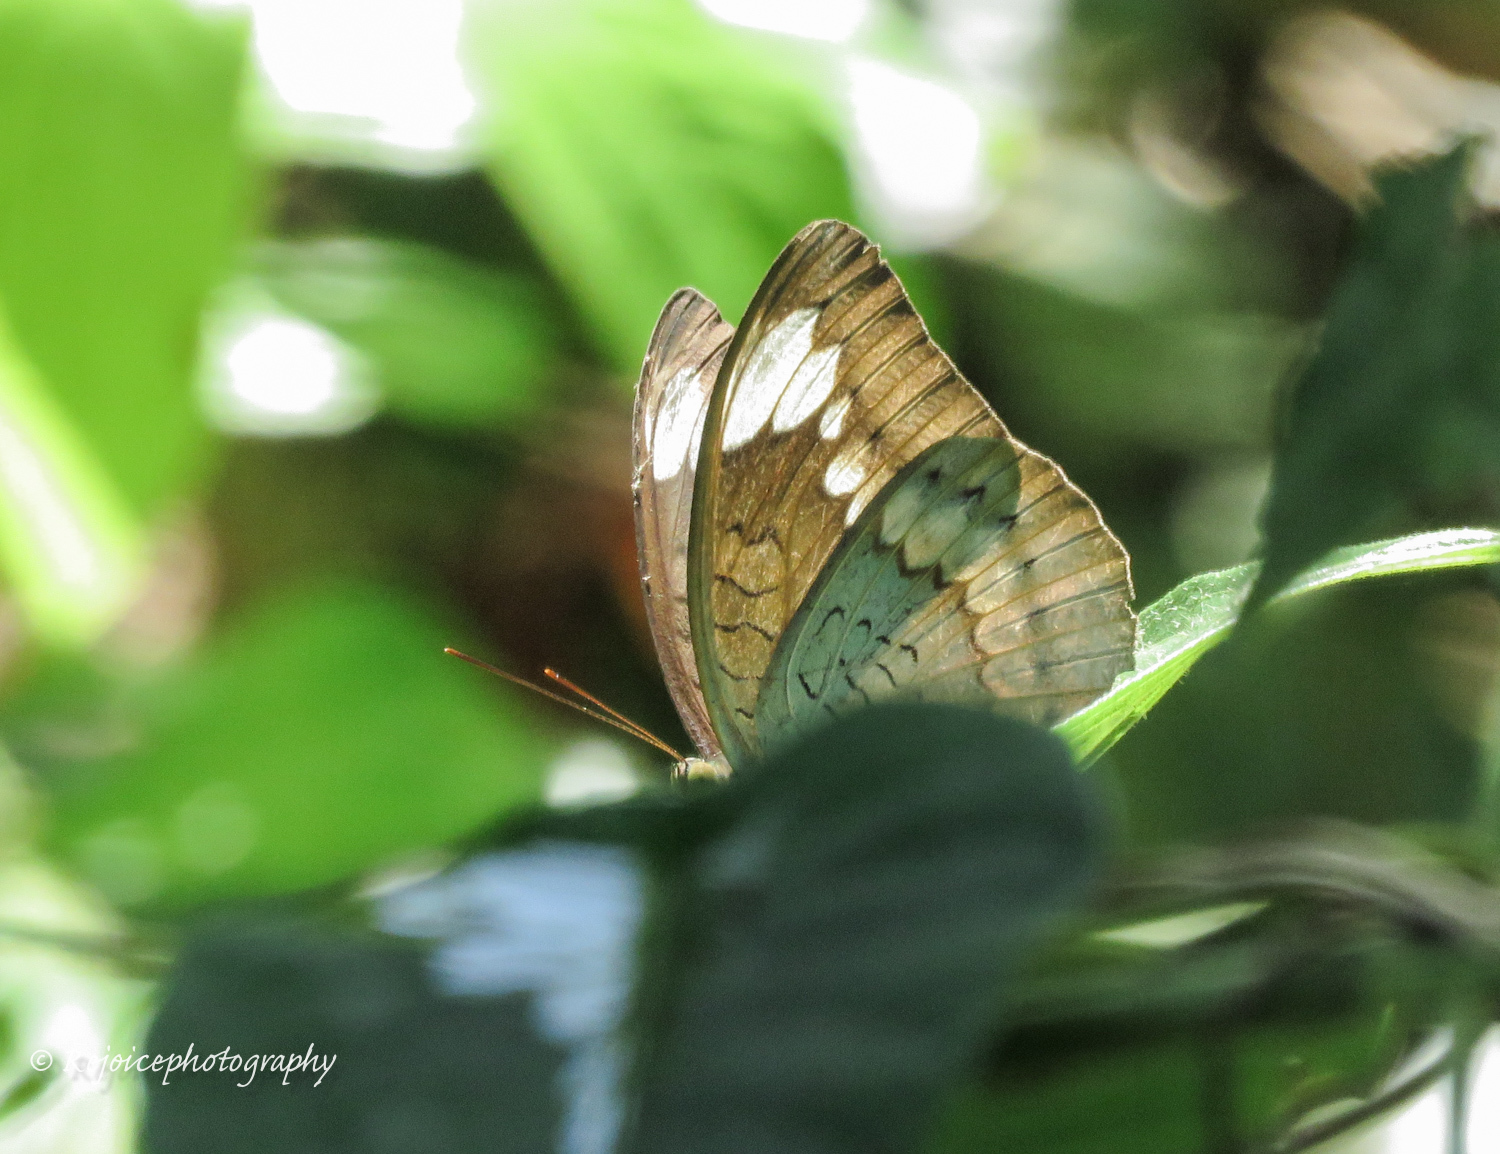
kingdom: Animalia
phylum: Arthropoda
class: Insecta
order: Lepidoptera
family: Nymphalidae
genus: Tanaecia
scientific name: Tanaecia julii
